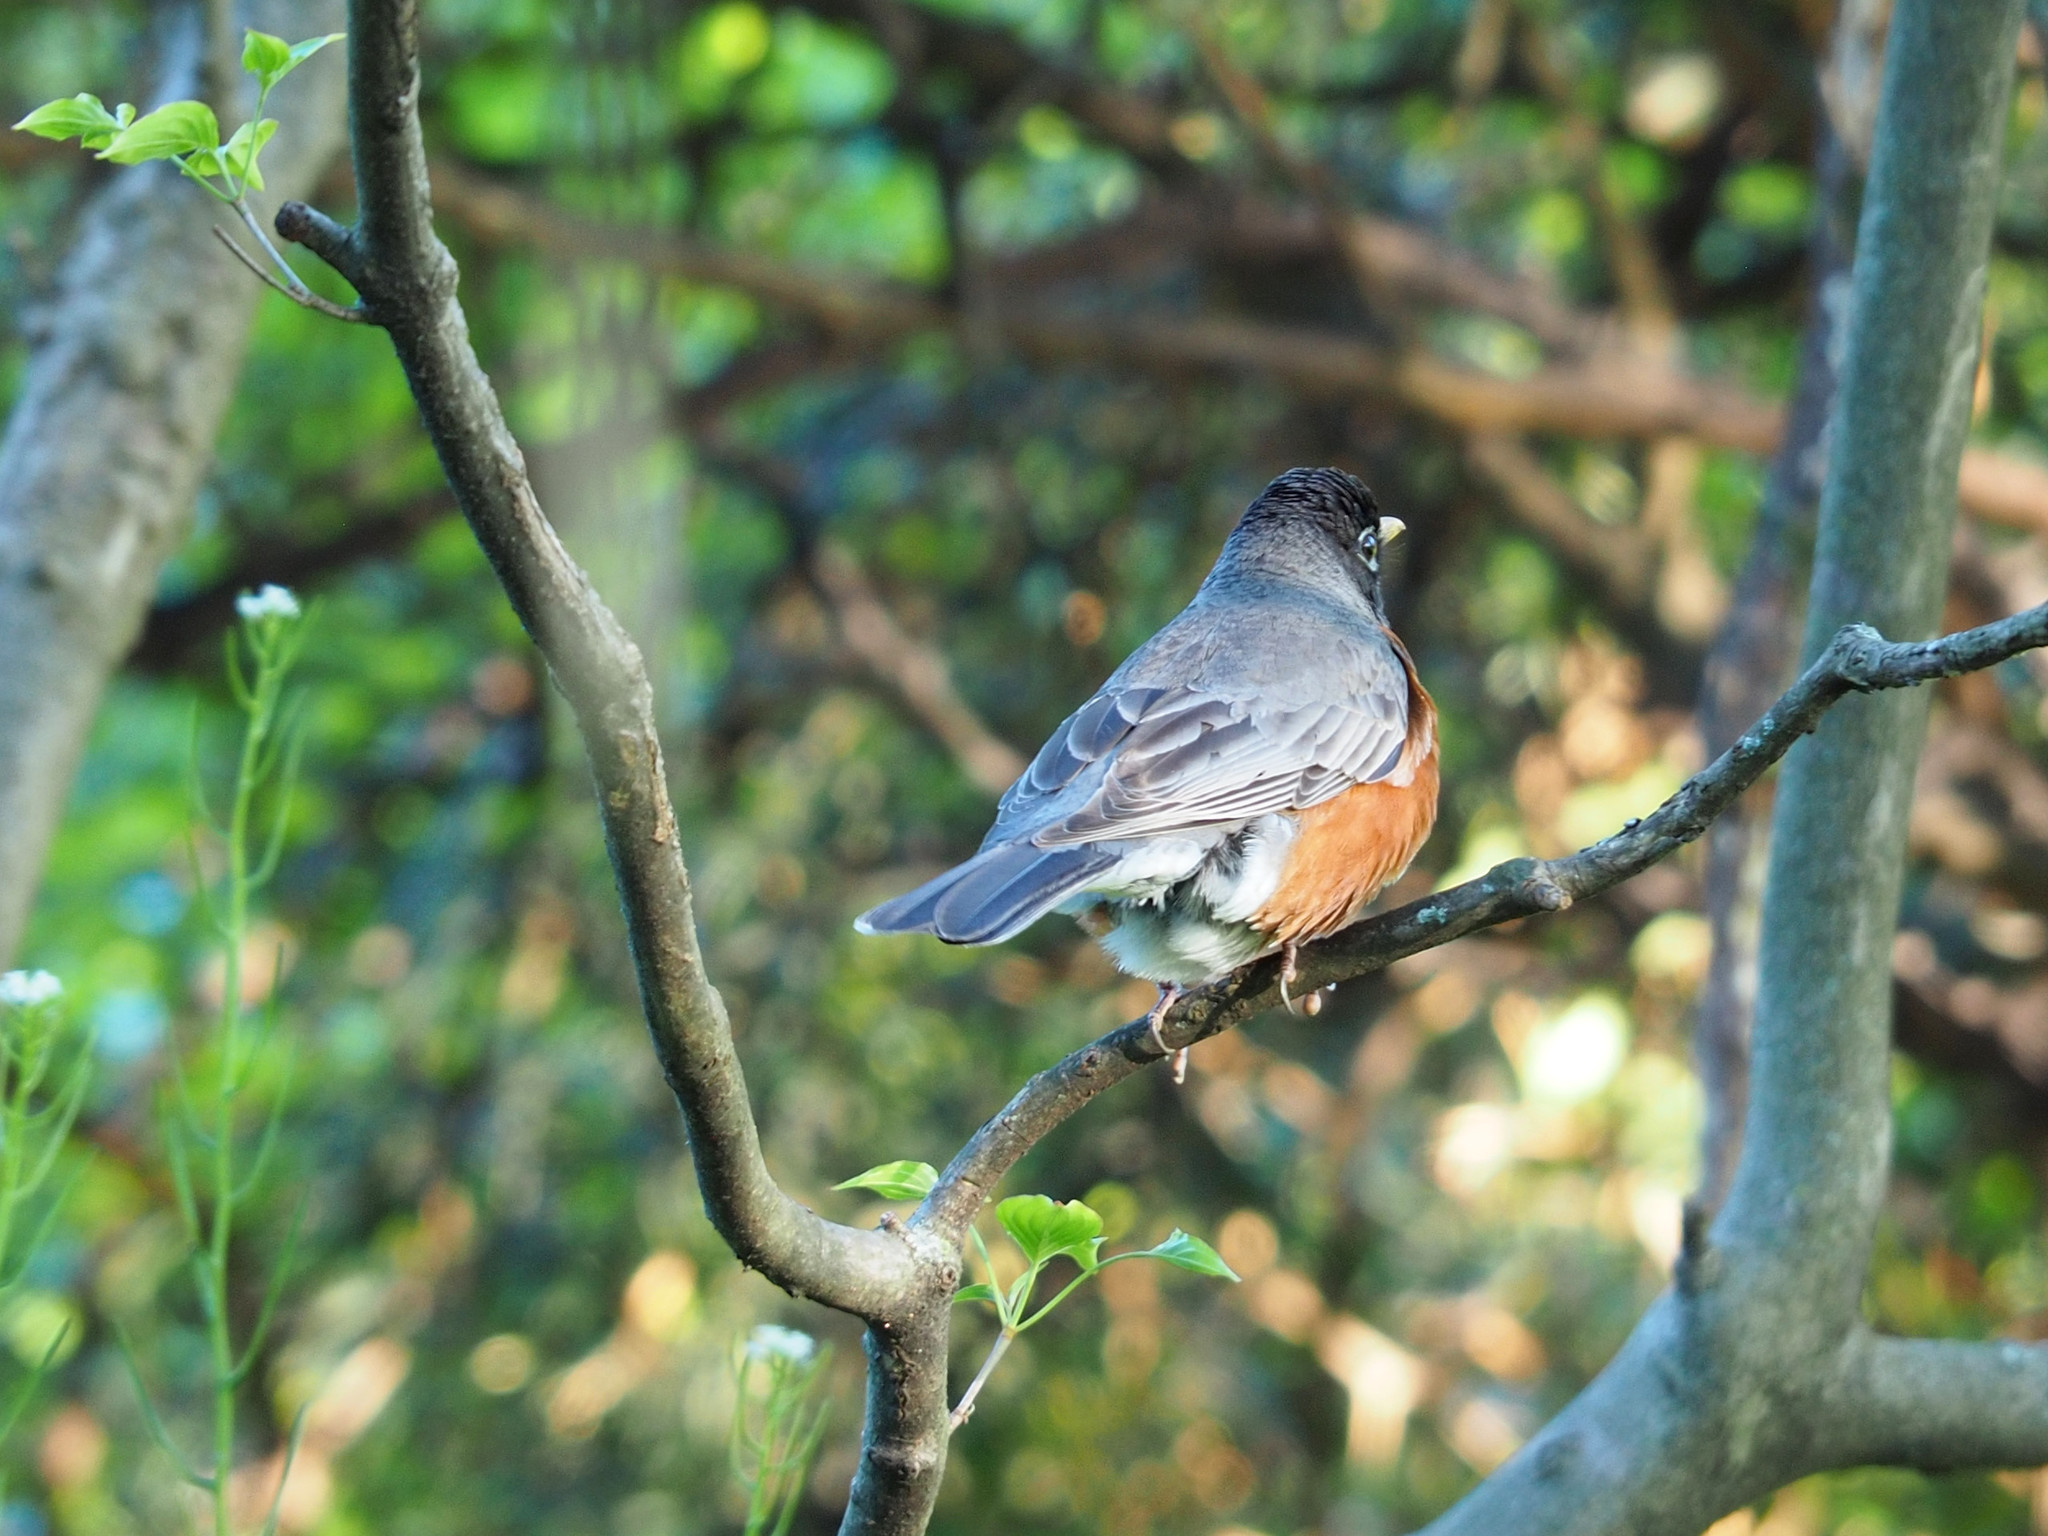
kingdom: Animalia
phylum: Chordata
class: Aves
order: Passeriformes
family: Turdidae
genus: Turdus
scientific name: Turdus migratorius
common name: American robin
